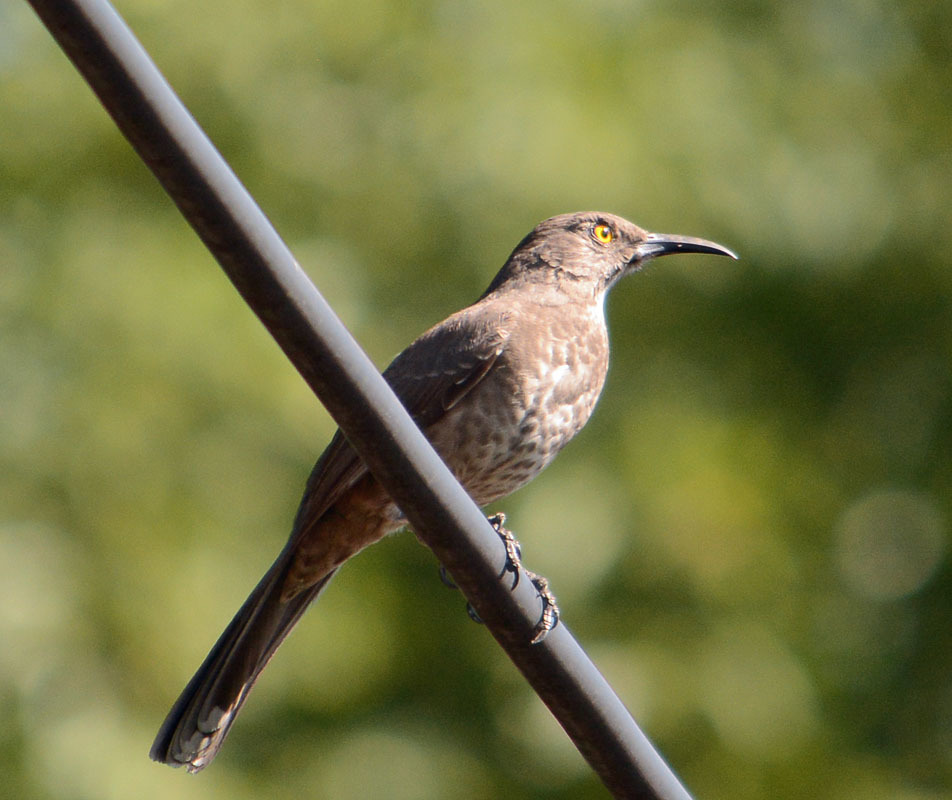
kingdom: Animalia
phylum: Chordata
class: Aves
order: Passeriformes
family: Mimidae
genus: Toxostoma
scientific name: Toxostoma curvirostre
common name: Curve-billed thrasher
